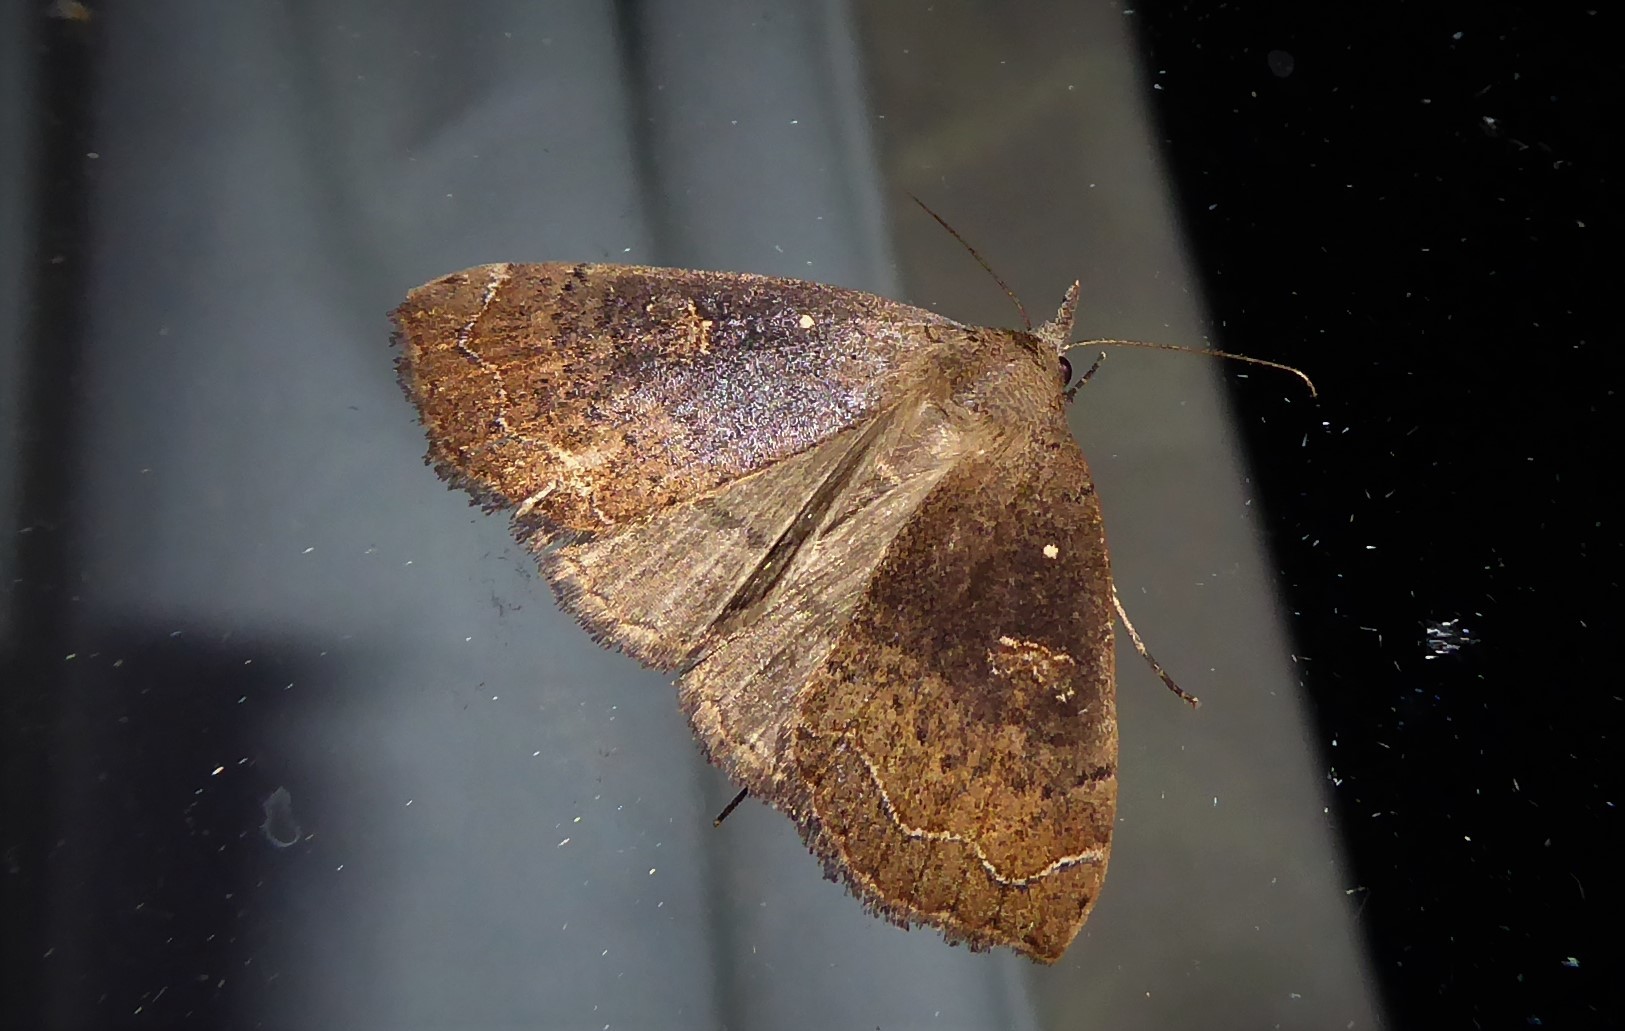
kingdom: Animalia
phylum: Arthropoda
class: Insecta
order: Lepidoptera
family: Erebidae
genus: Rhapsa
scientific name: Rhapsa scotosialis
